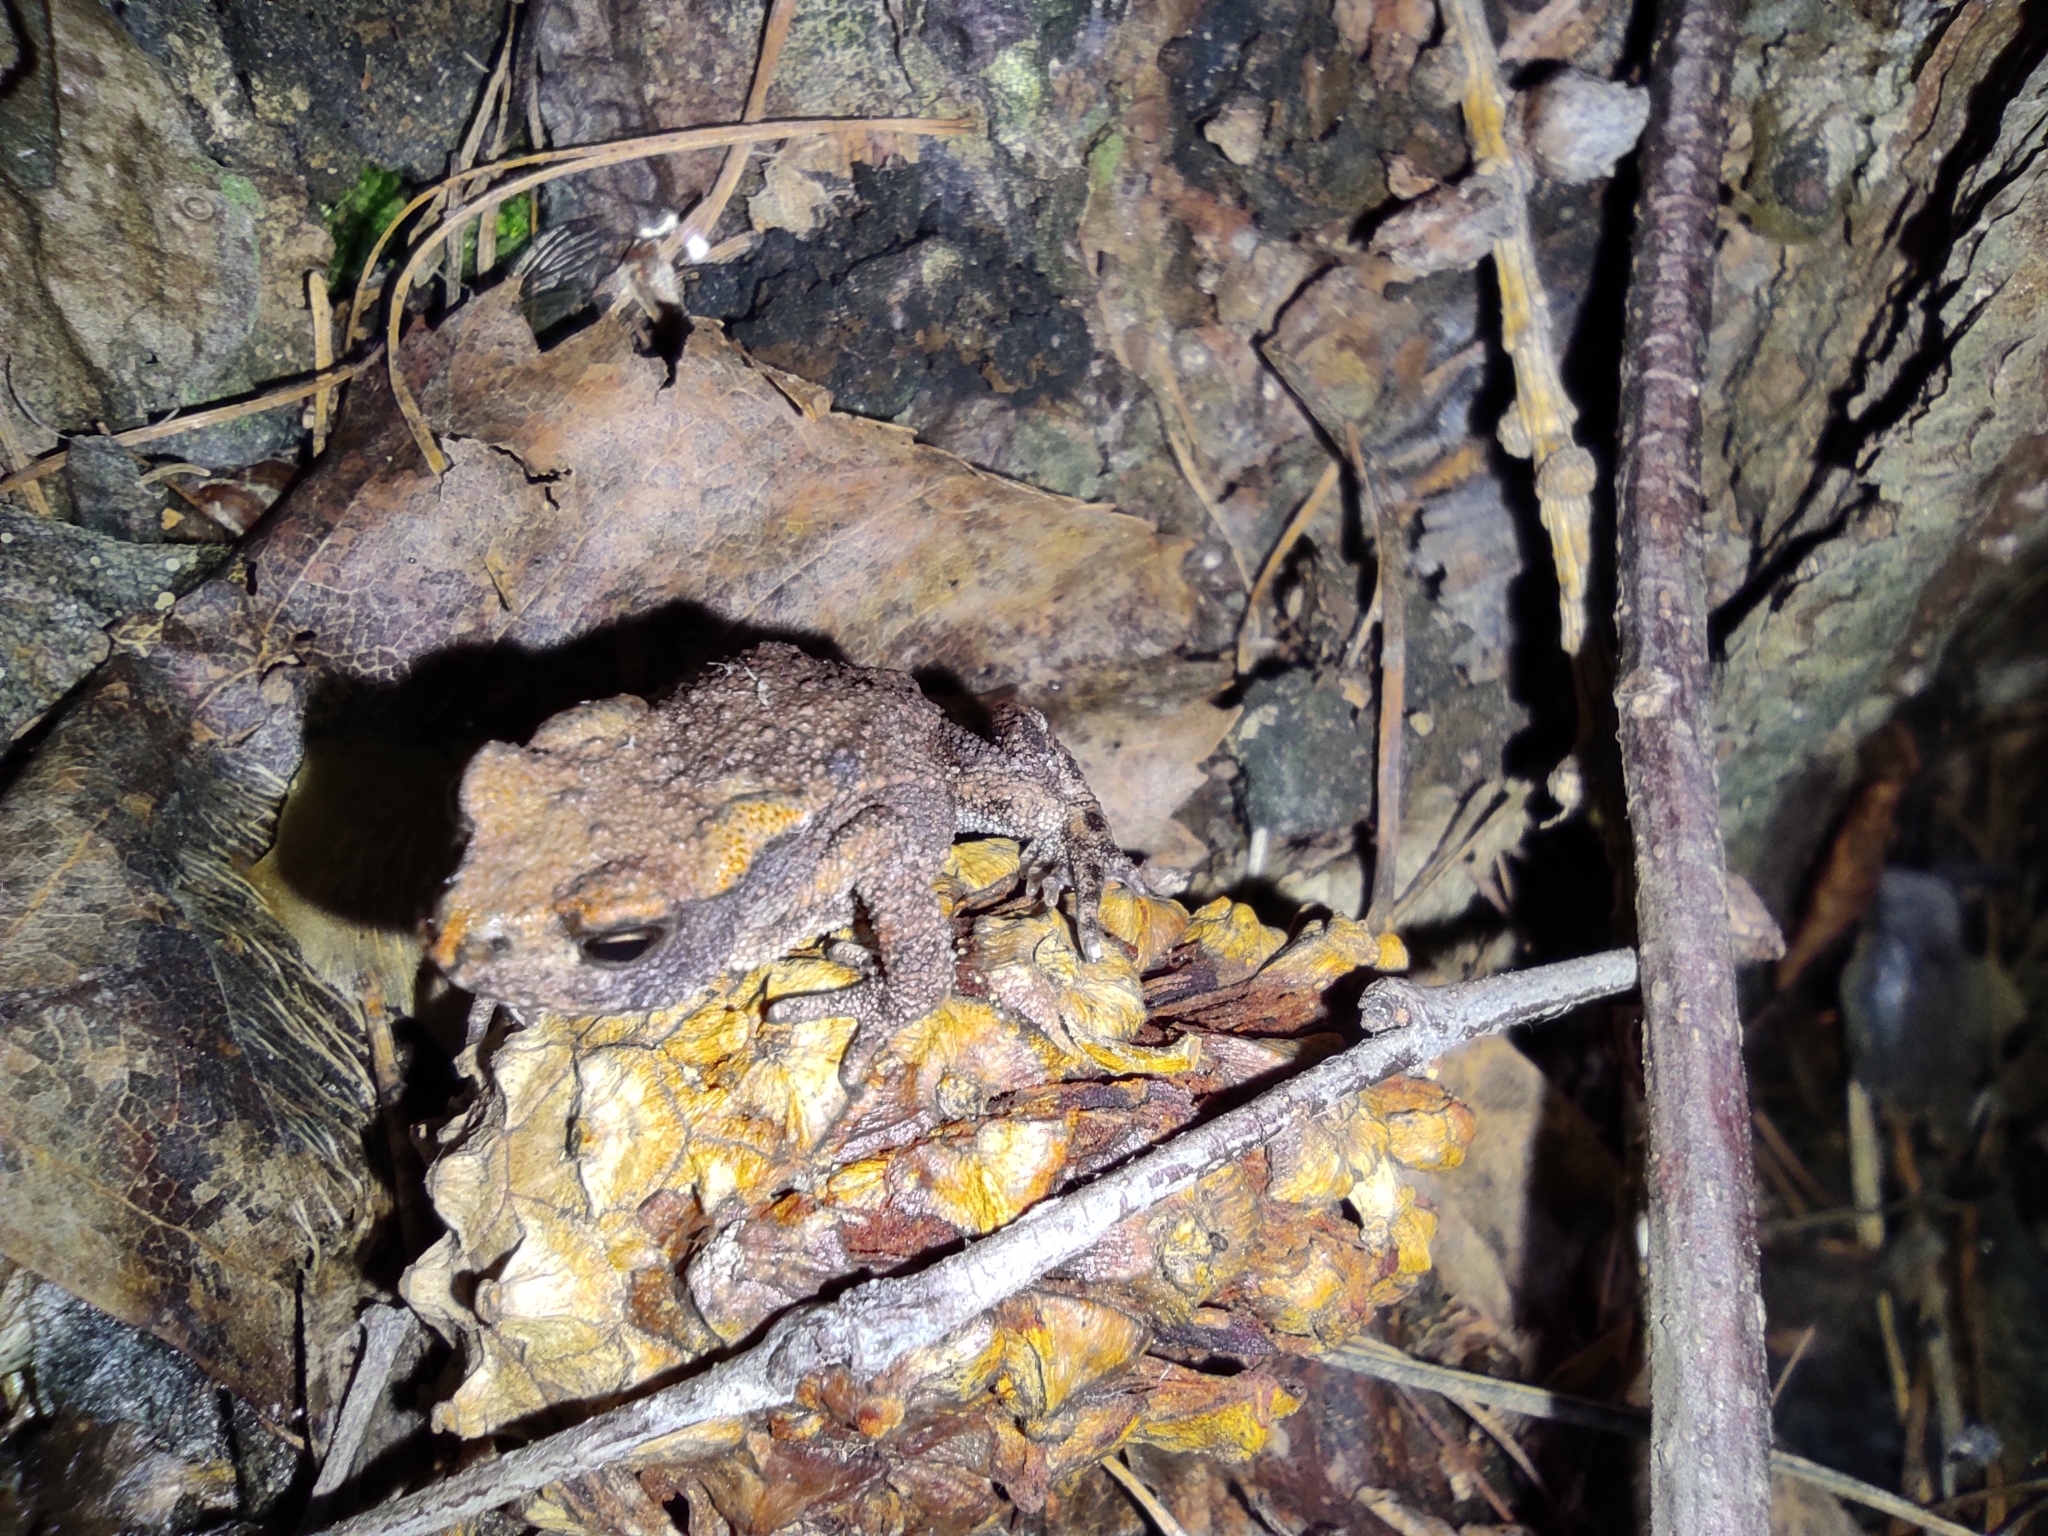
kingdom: Animalia
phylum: Chordata
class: Amphibia
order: Anura
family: Bufonidae
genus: Bufo
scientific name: Bufo bufo
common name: Common toad
